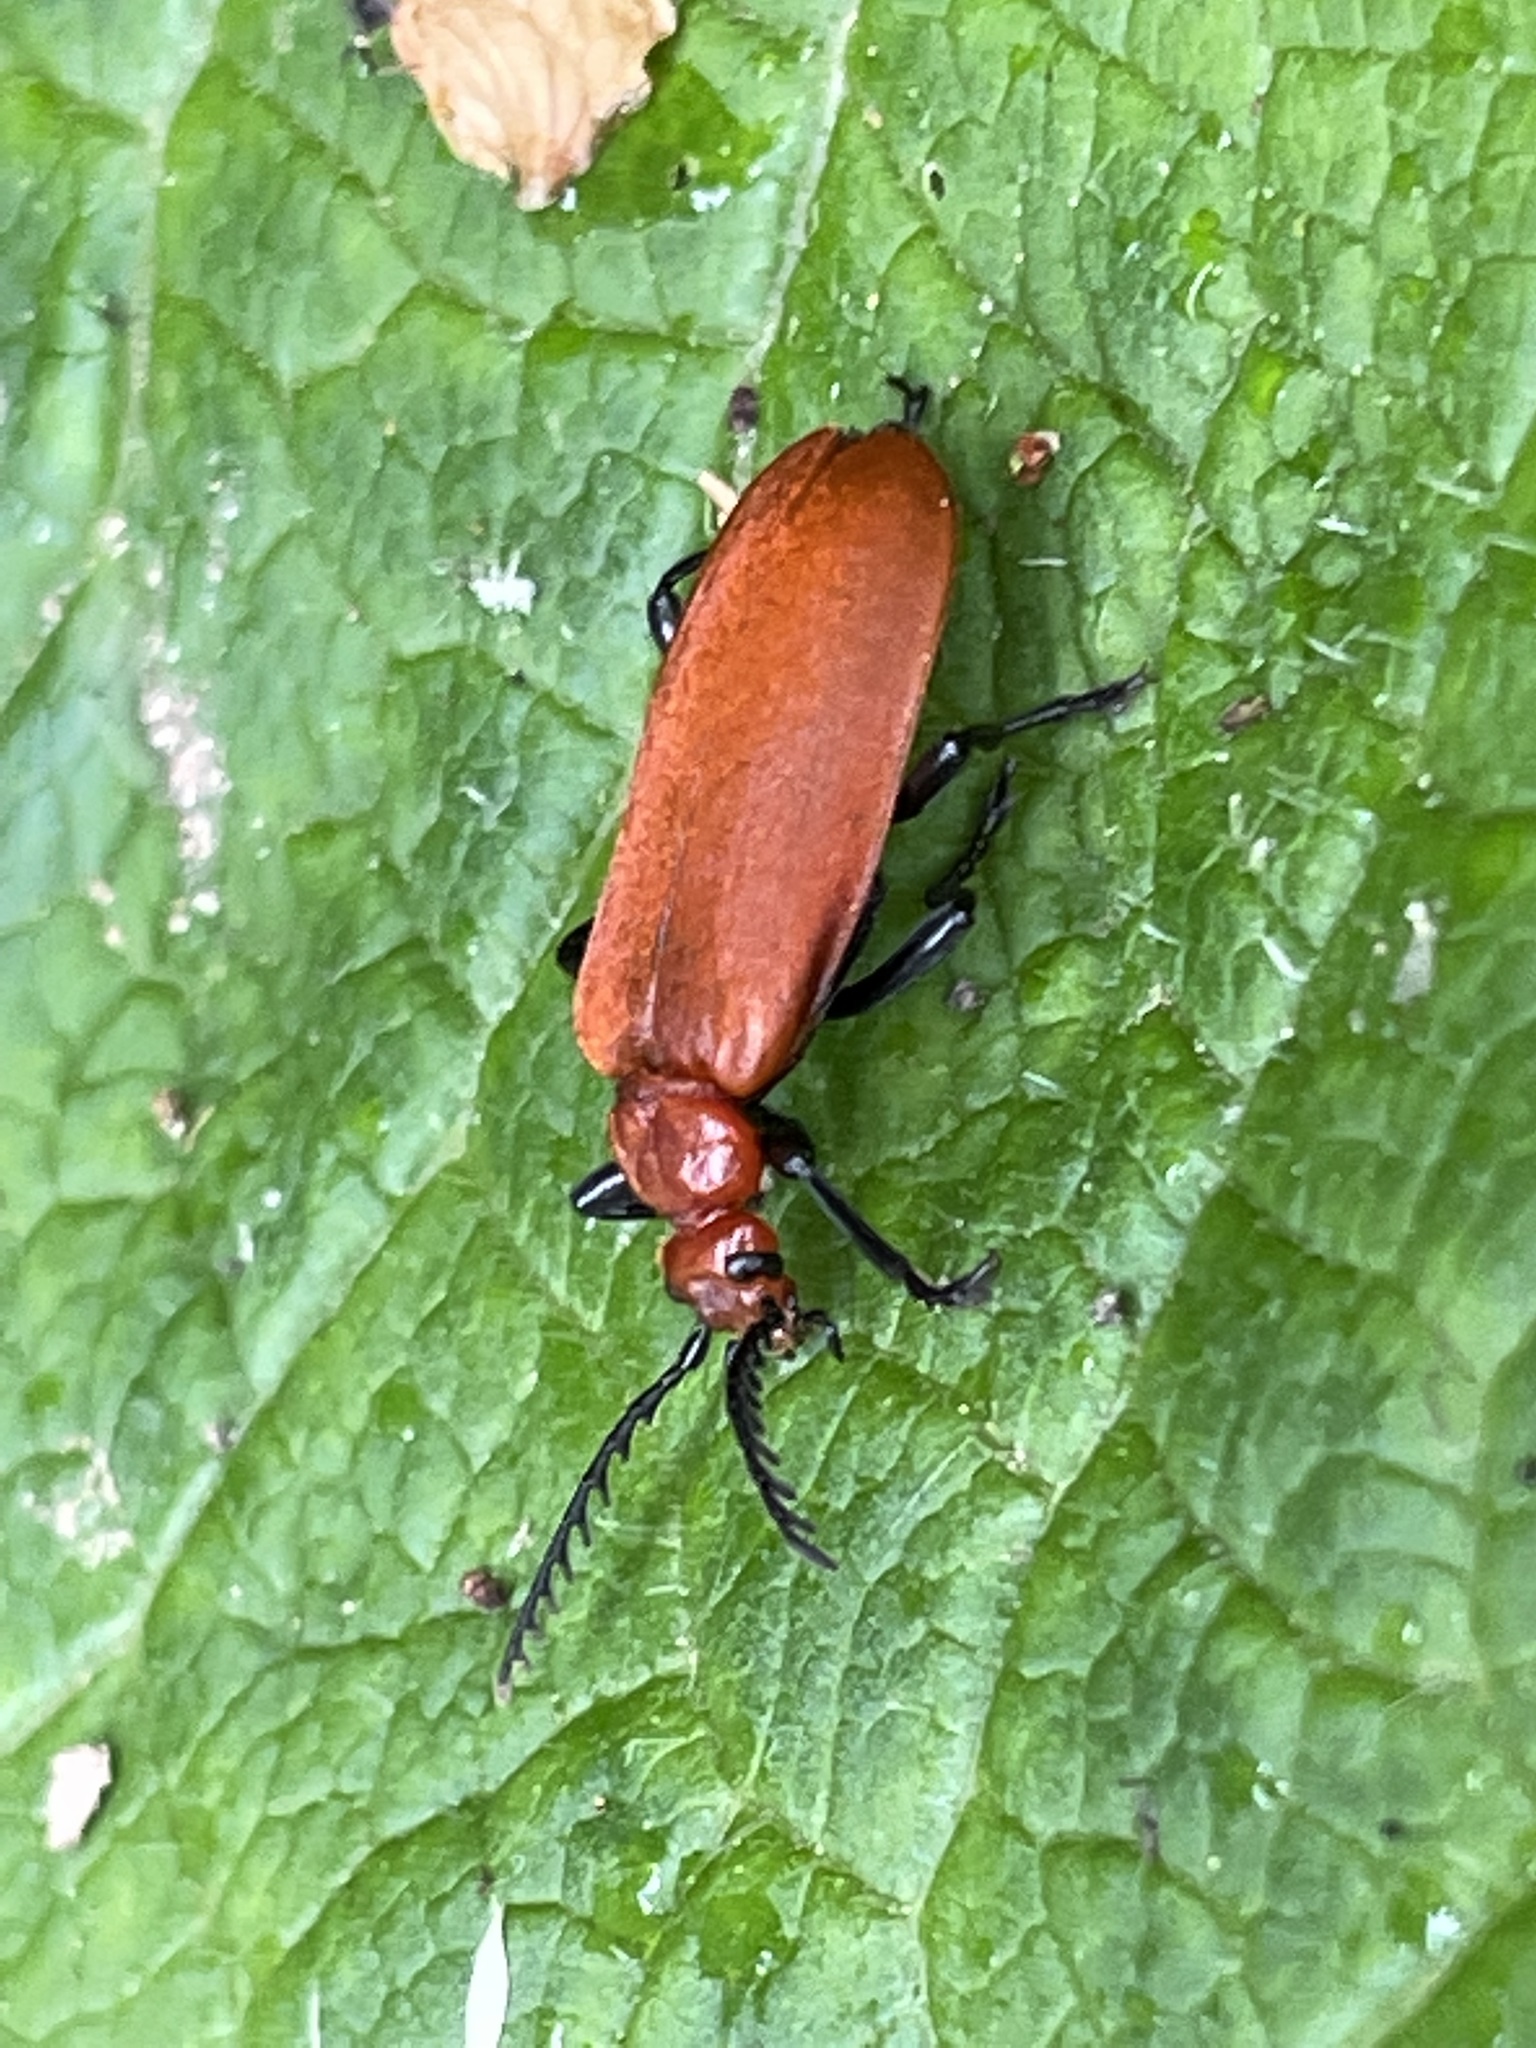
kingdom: Animalia
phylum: Arthropoda
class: Insecta
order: Coleoptera
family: Pyrochroidae
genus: Pyrochroa
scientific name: Pyrochroa serraticornis
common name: Red-headed cardinal beetle
